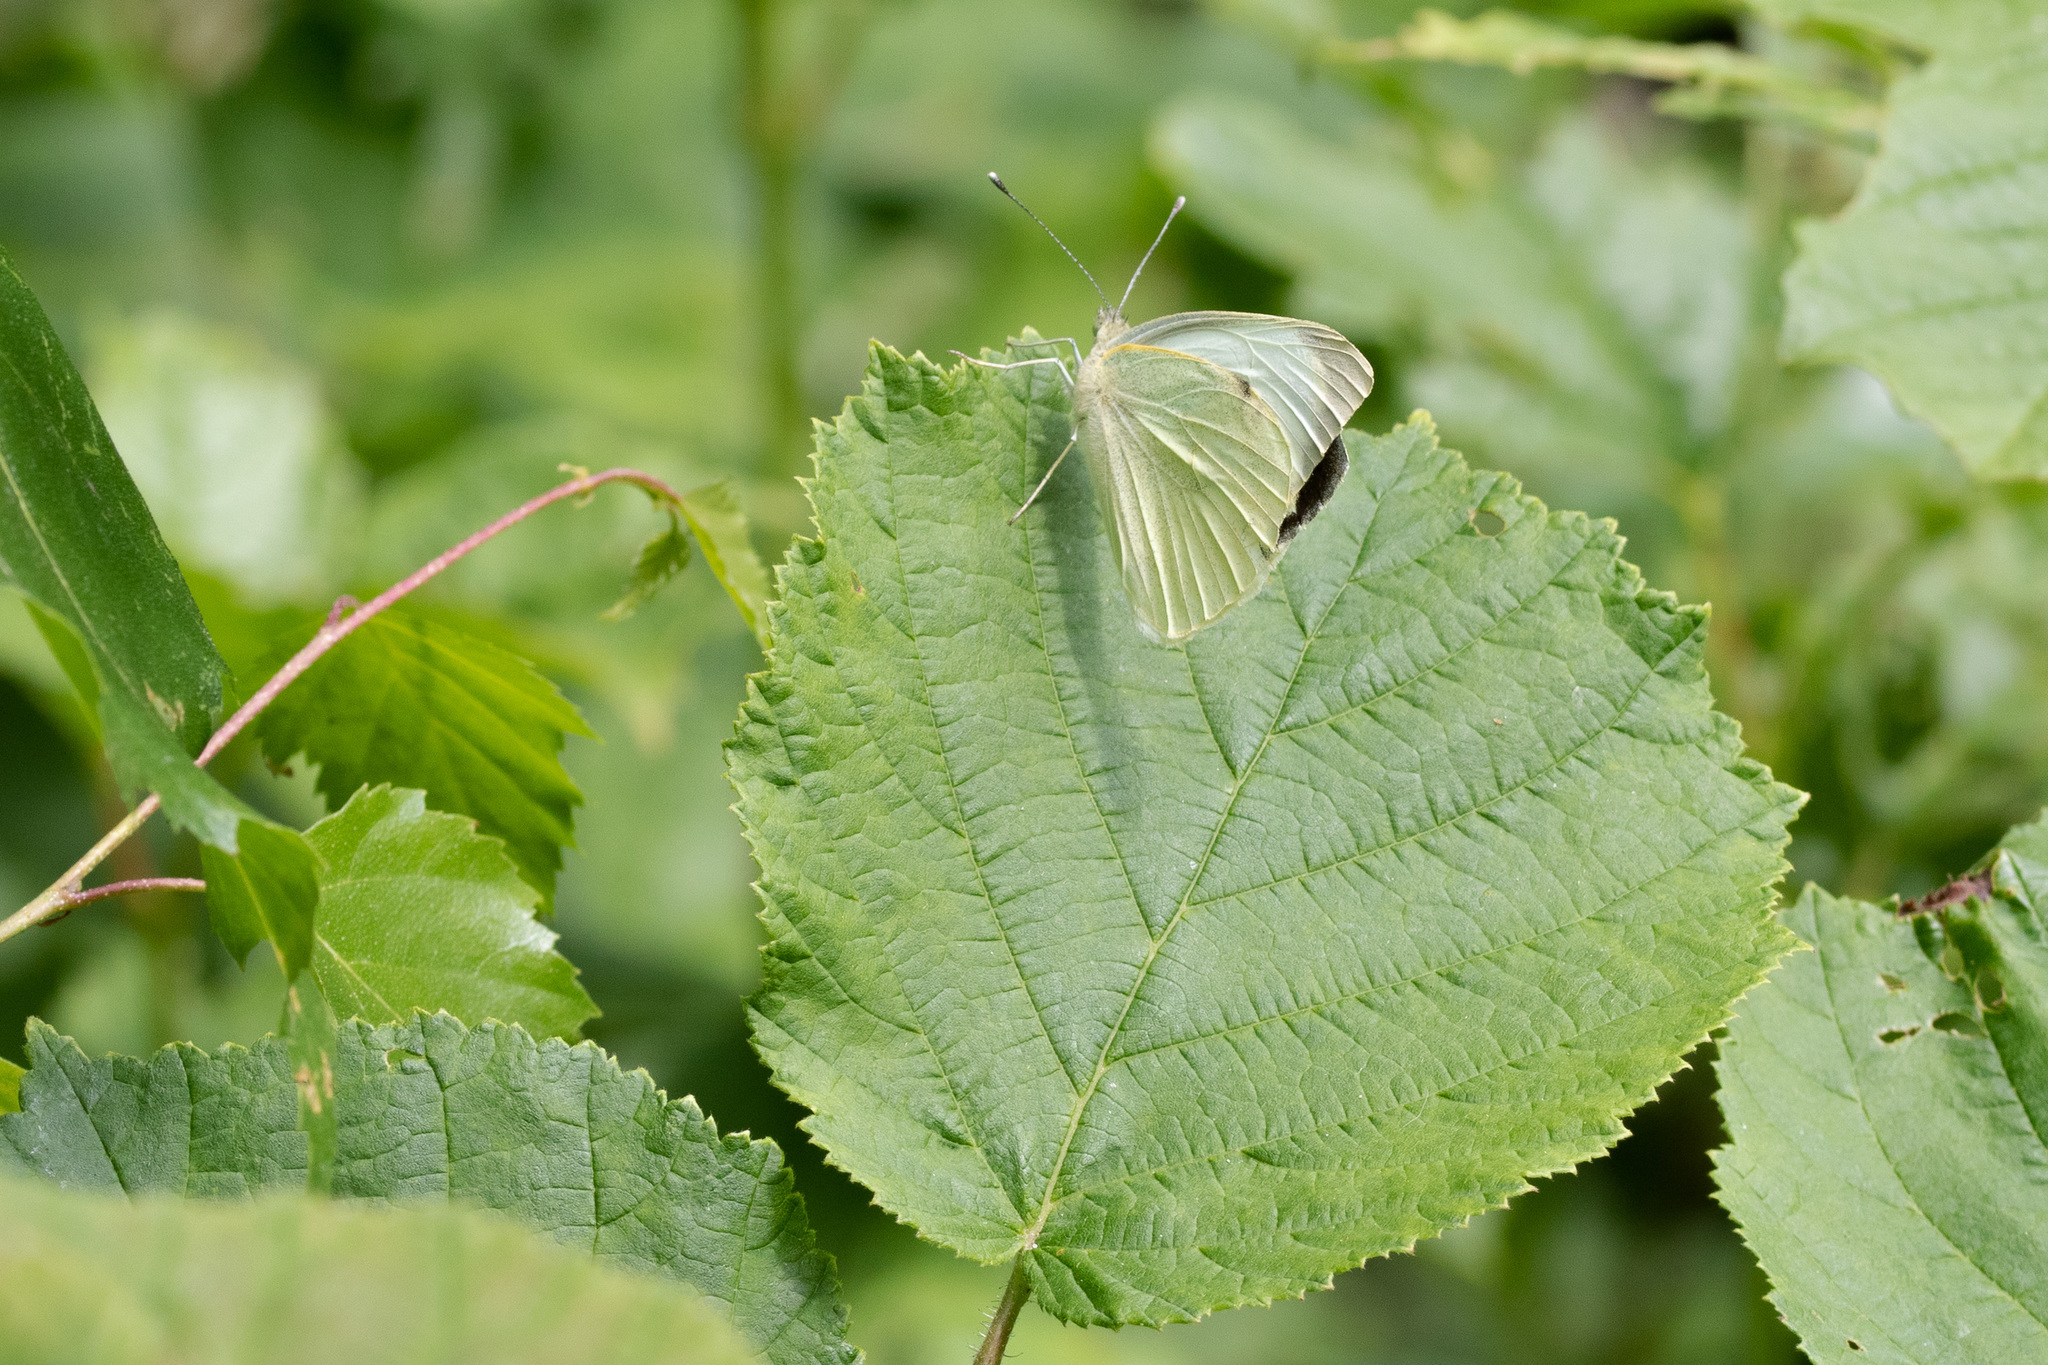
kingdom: Animalia
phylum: Arthropoda
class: Insecta
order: Lepidoptera
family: Pieridae
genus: Pieris
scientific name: Pieris brassicae
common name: Large white
